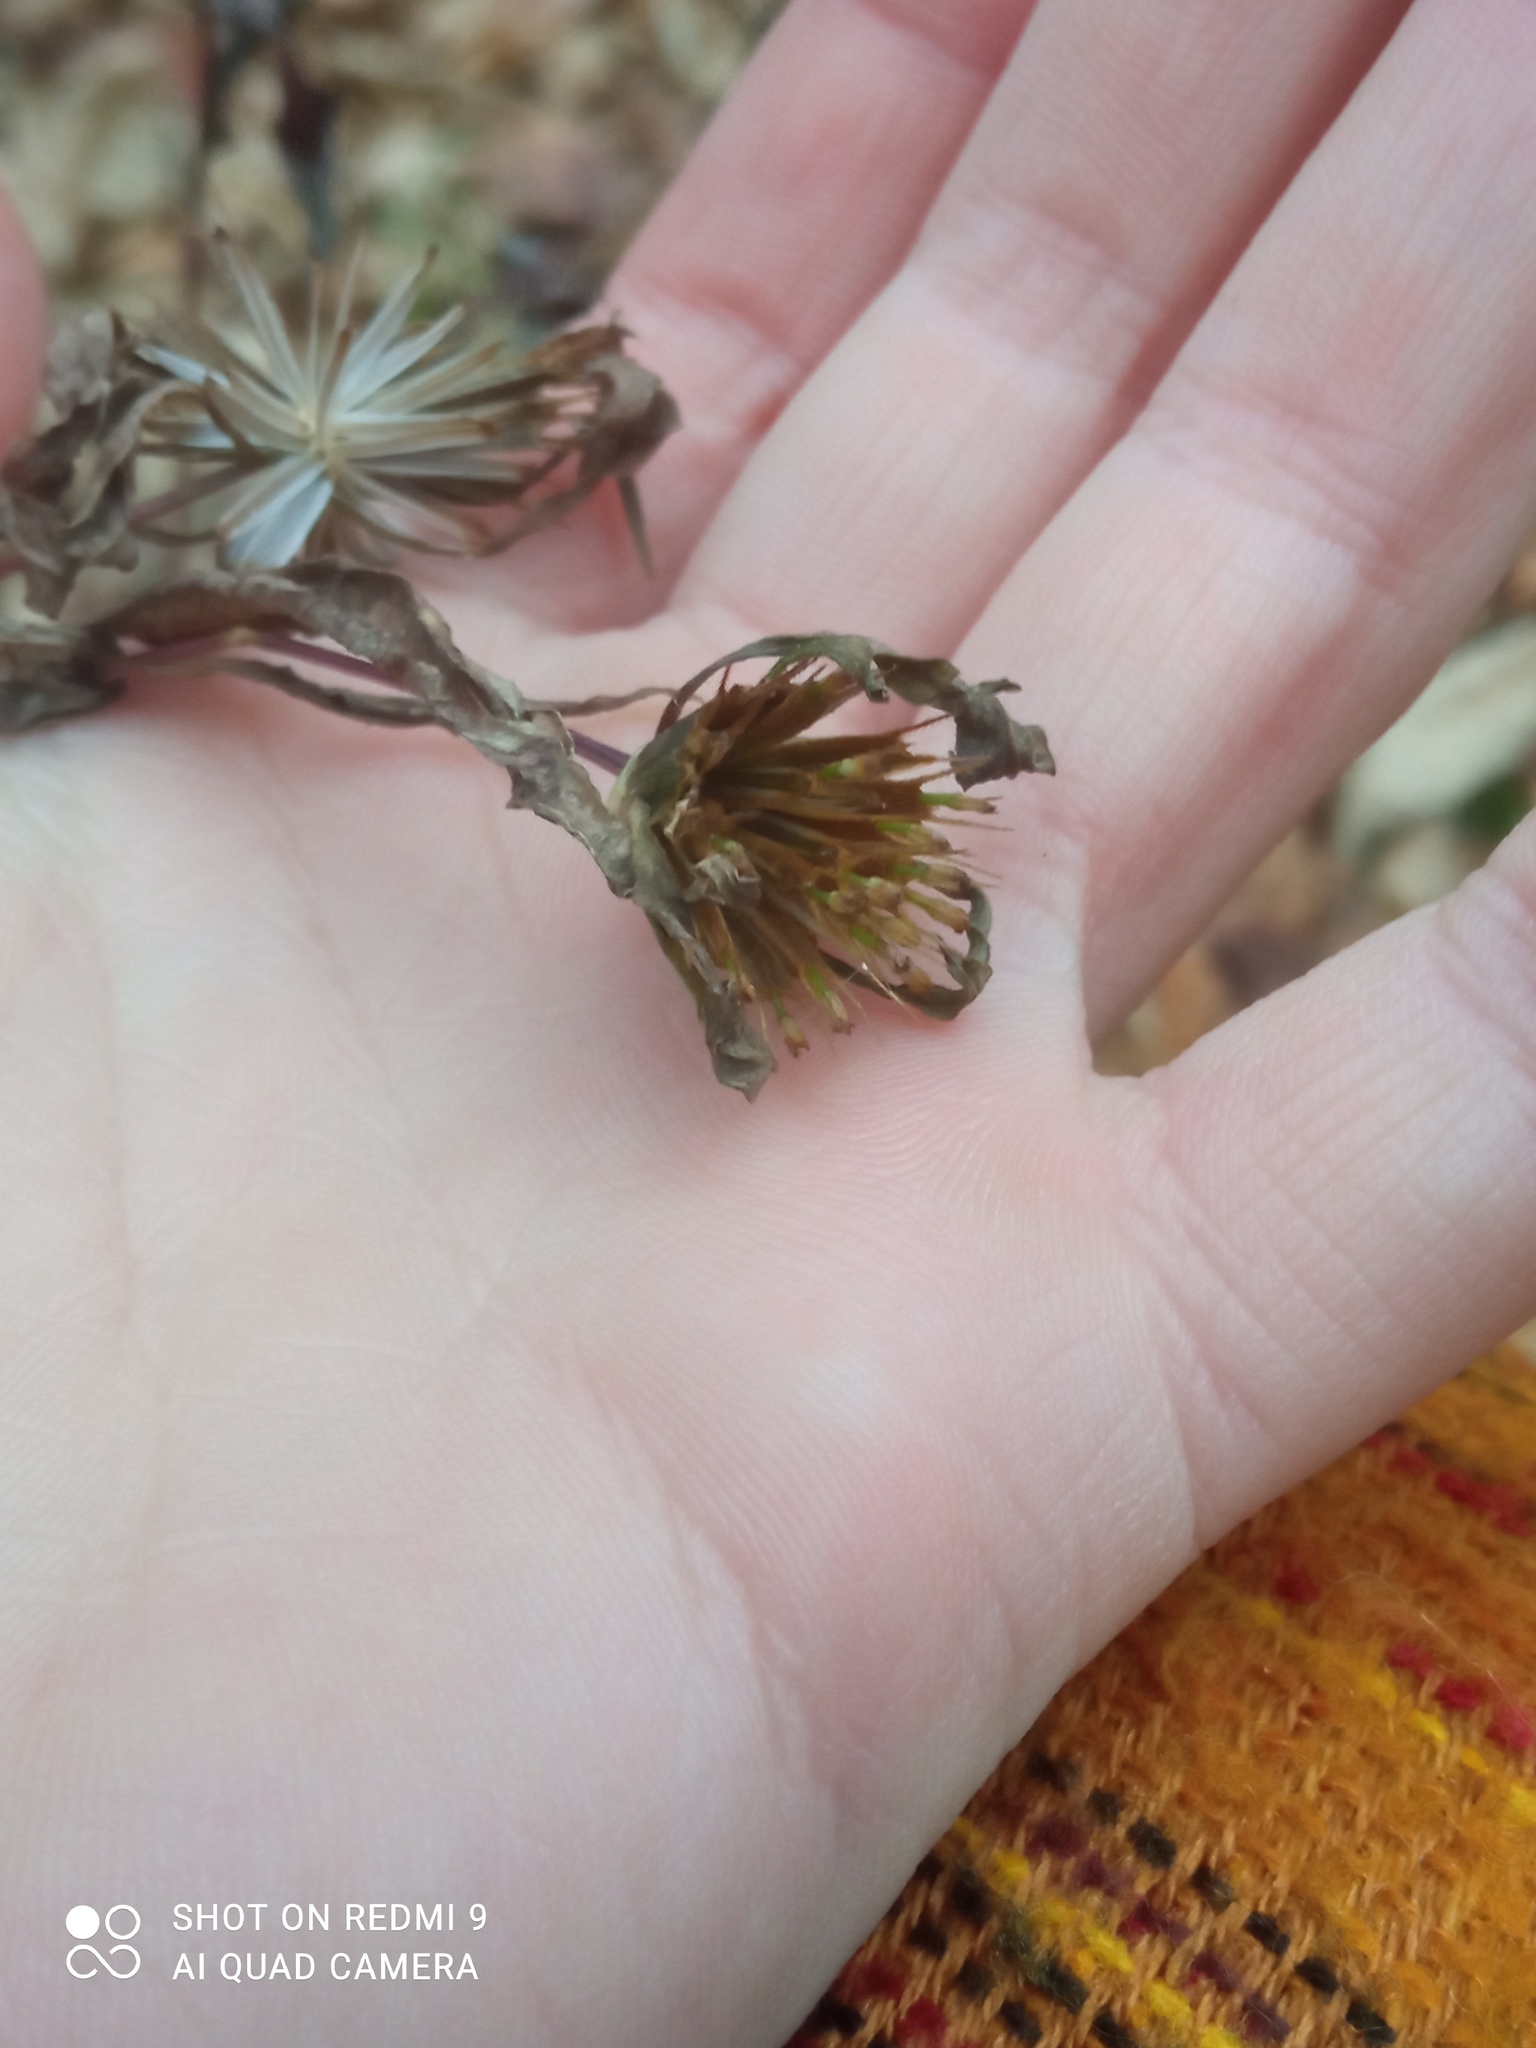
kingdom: Plantae
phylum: Tracheophyta
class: Magnoliopsida
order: Asterales
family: Asteraceae
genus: Bidens
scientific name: Bidens frondosa
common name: Beggarticks
